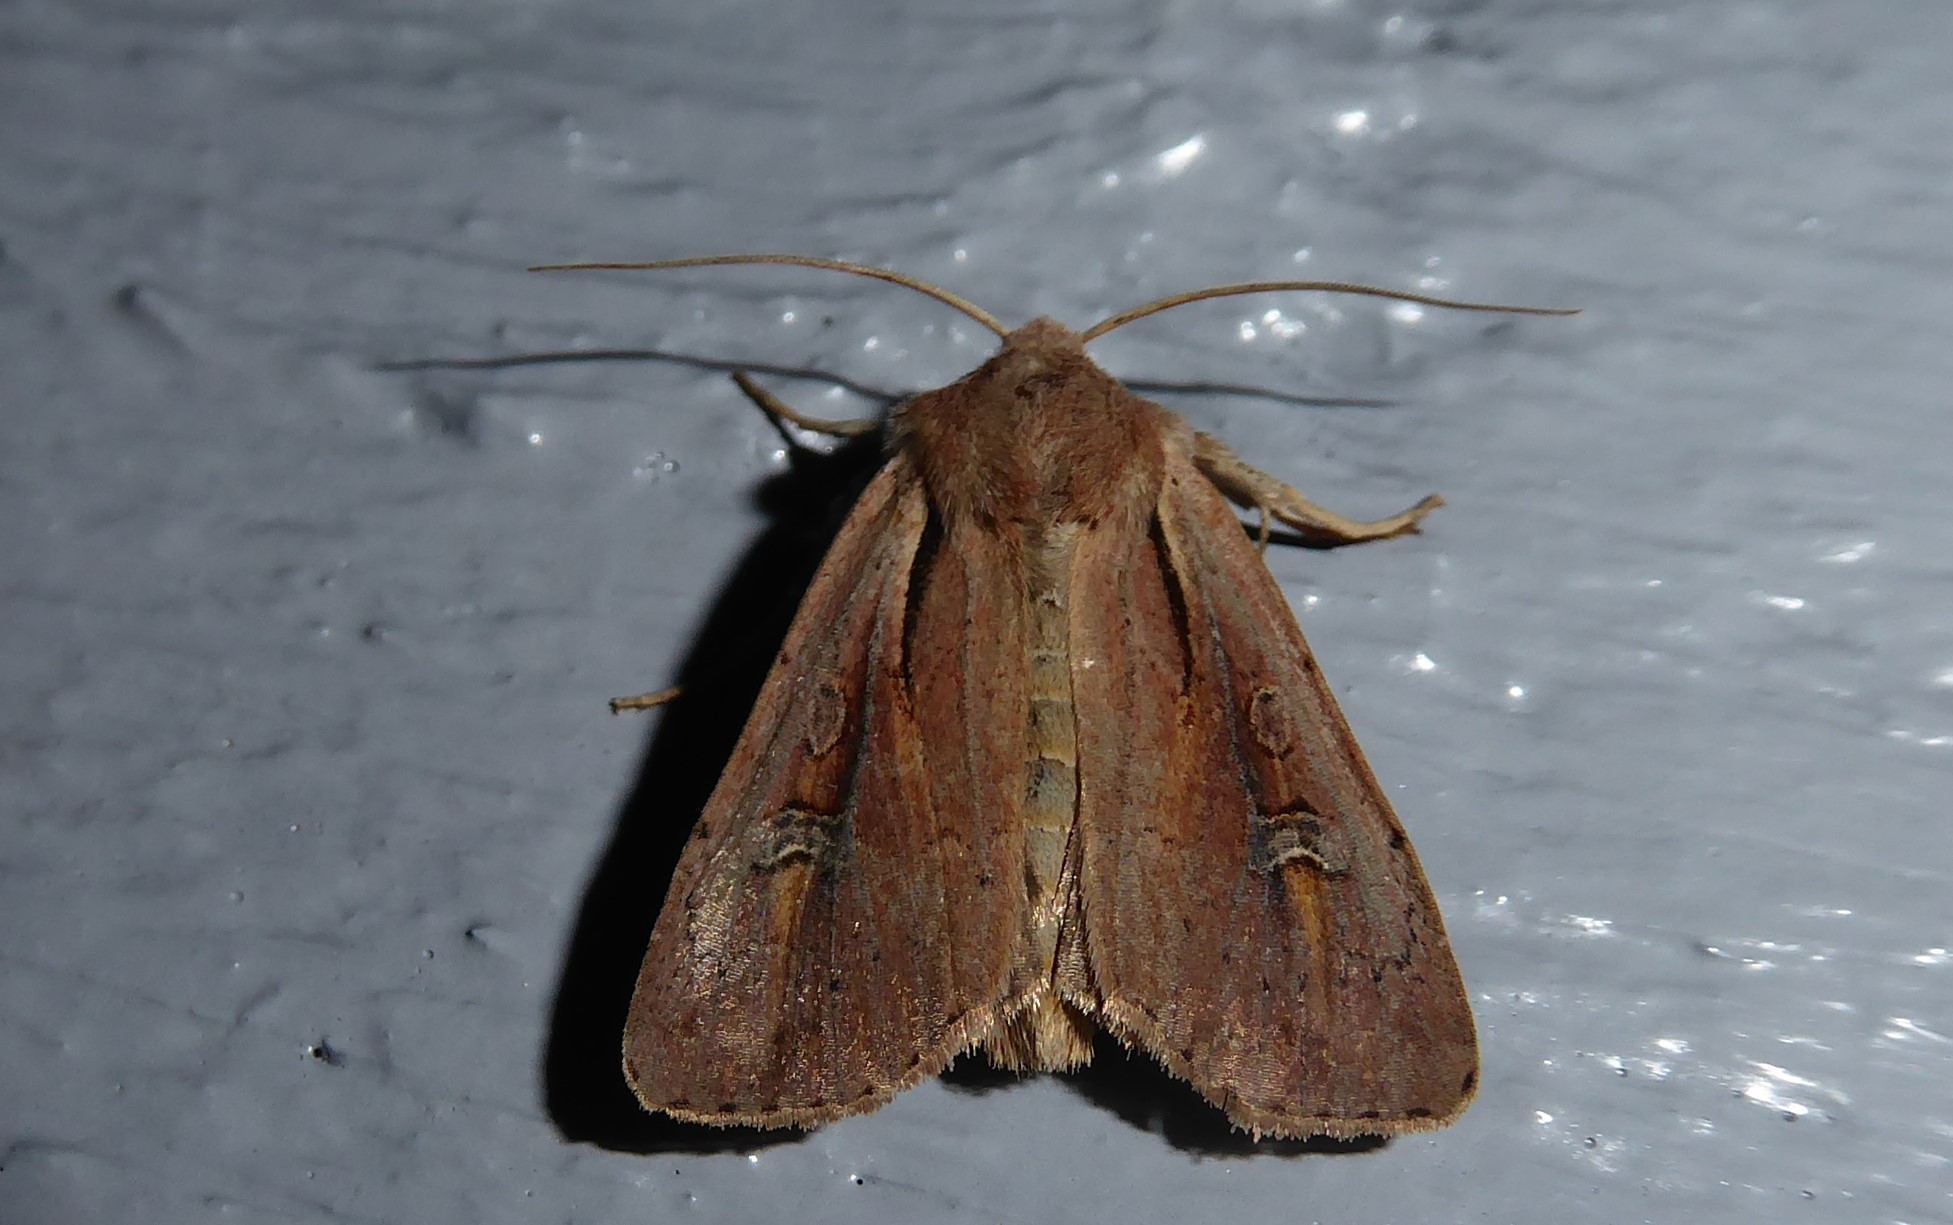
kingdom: Animalia
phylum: Arthropoda
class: Insecta
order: Lepidoptera
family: Noctuidae
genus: Ichneutica
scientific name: Ichneutica atristriga
